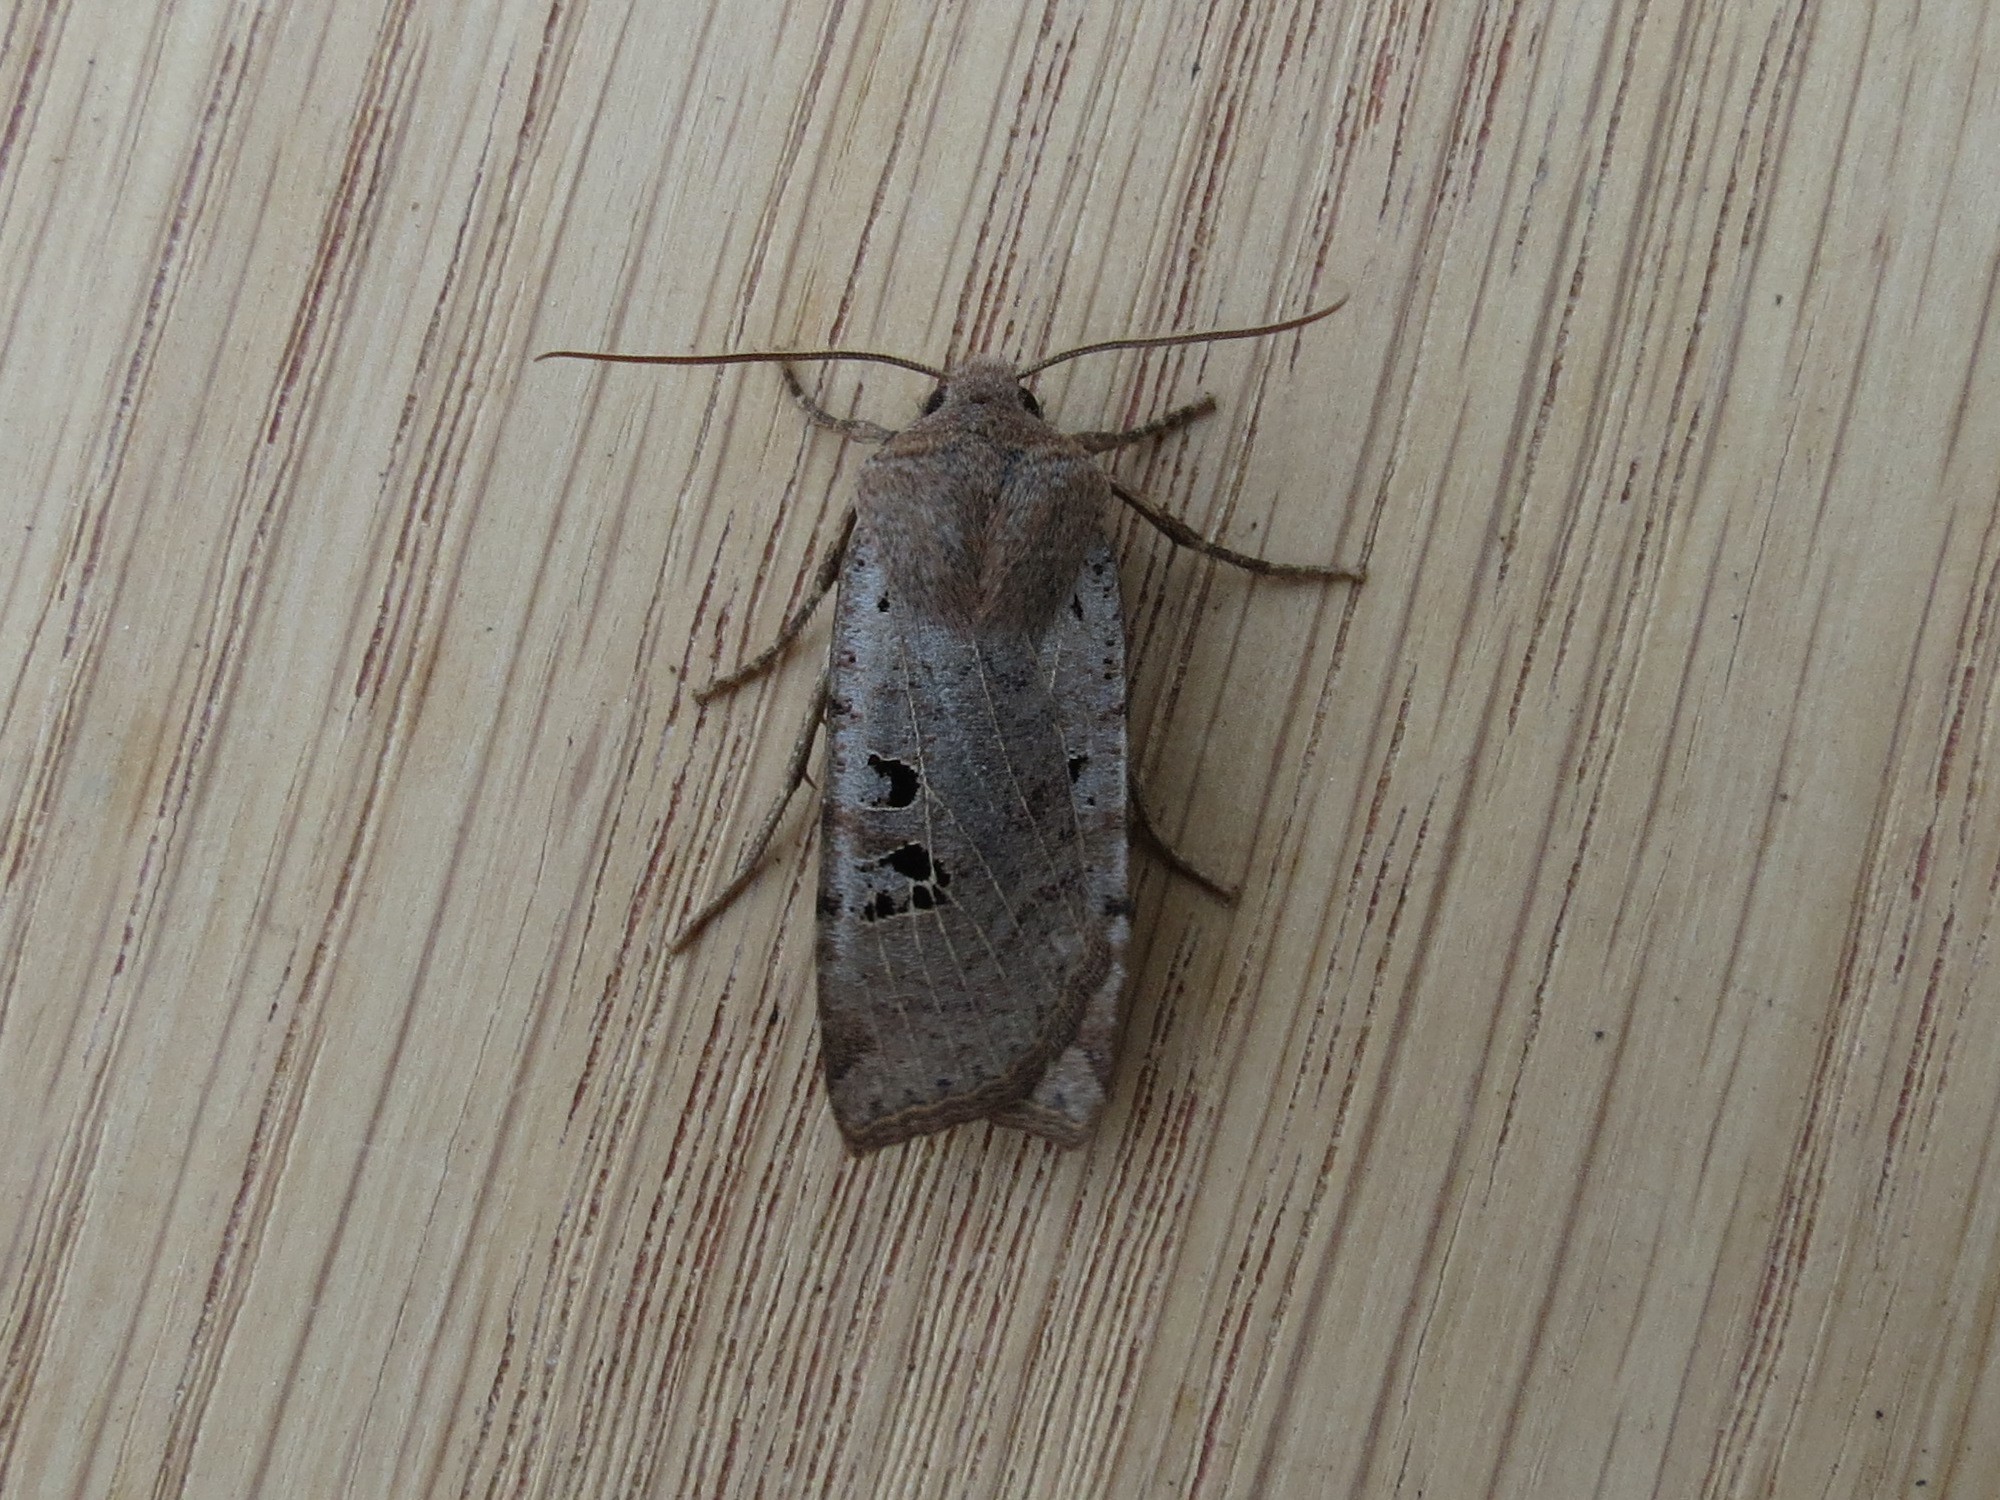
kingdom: Animalia
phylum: Arthropoda
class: Insecta
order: Lepidoptera
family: Noctuidae
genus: Conistra
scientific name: Conistra rubiginosa
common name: Black-spotted chestnut
